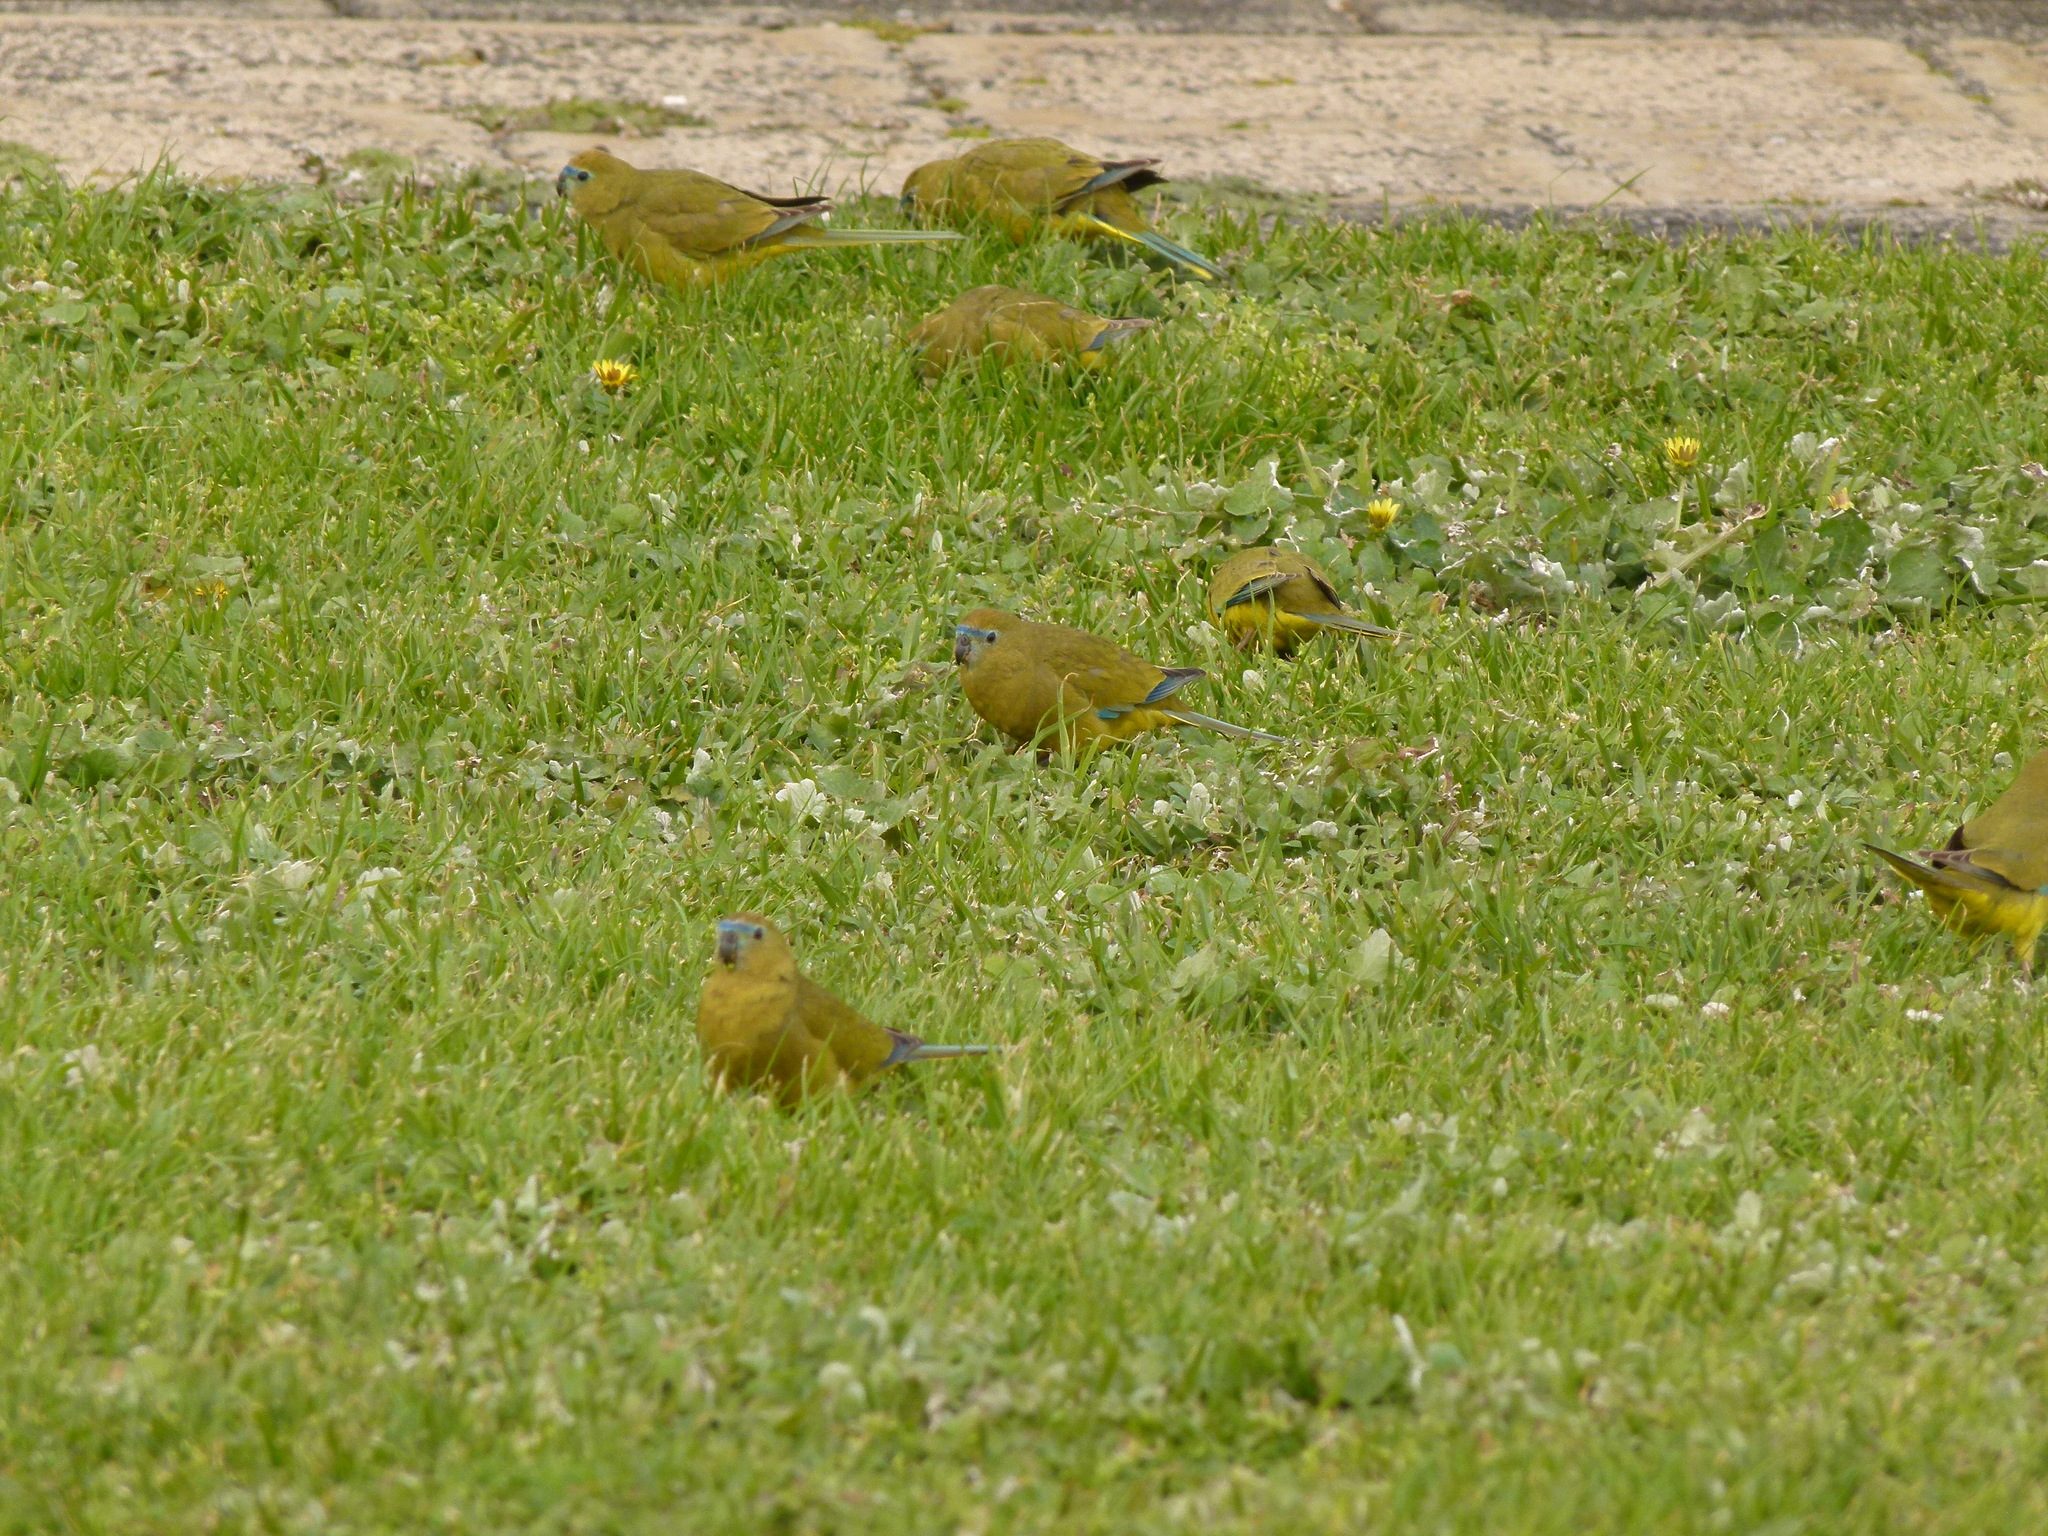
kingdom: Animalia
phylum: Chordata
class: Aves
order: Psittaciformes
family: Psittacidae
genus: Neophema
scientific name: Neophema petrophila
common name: Rock parrot
